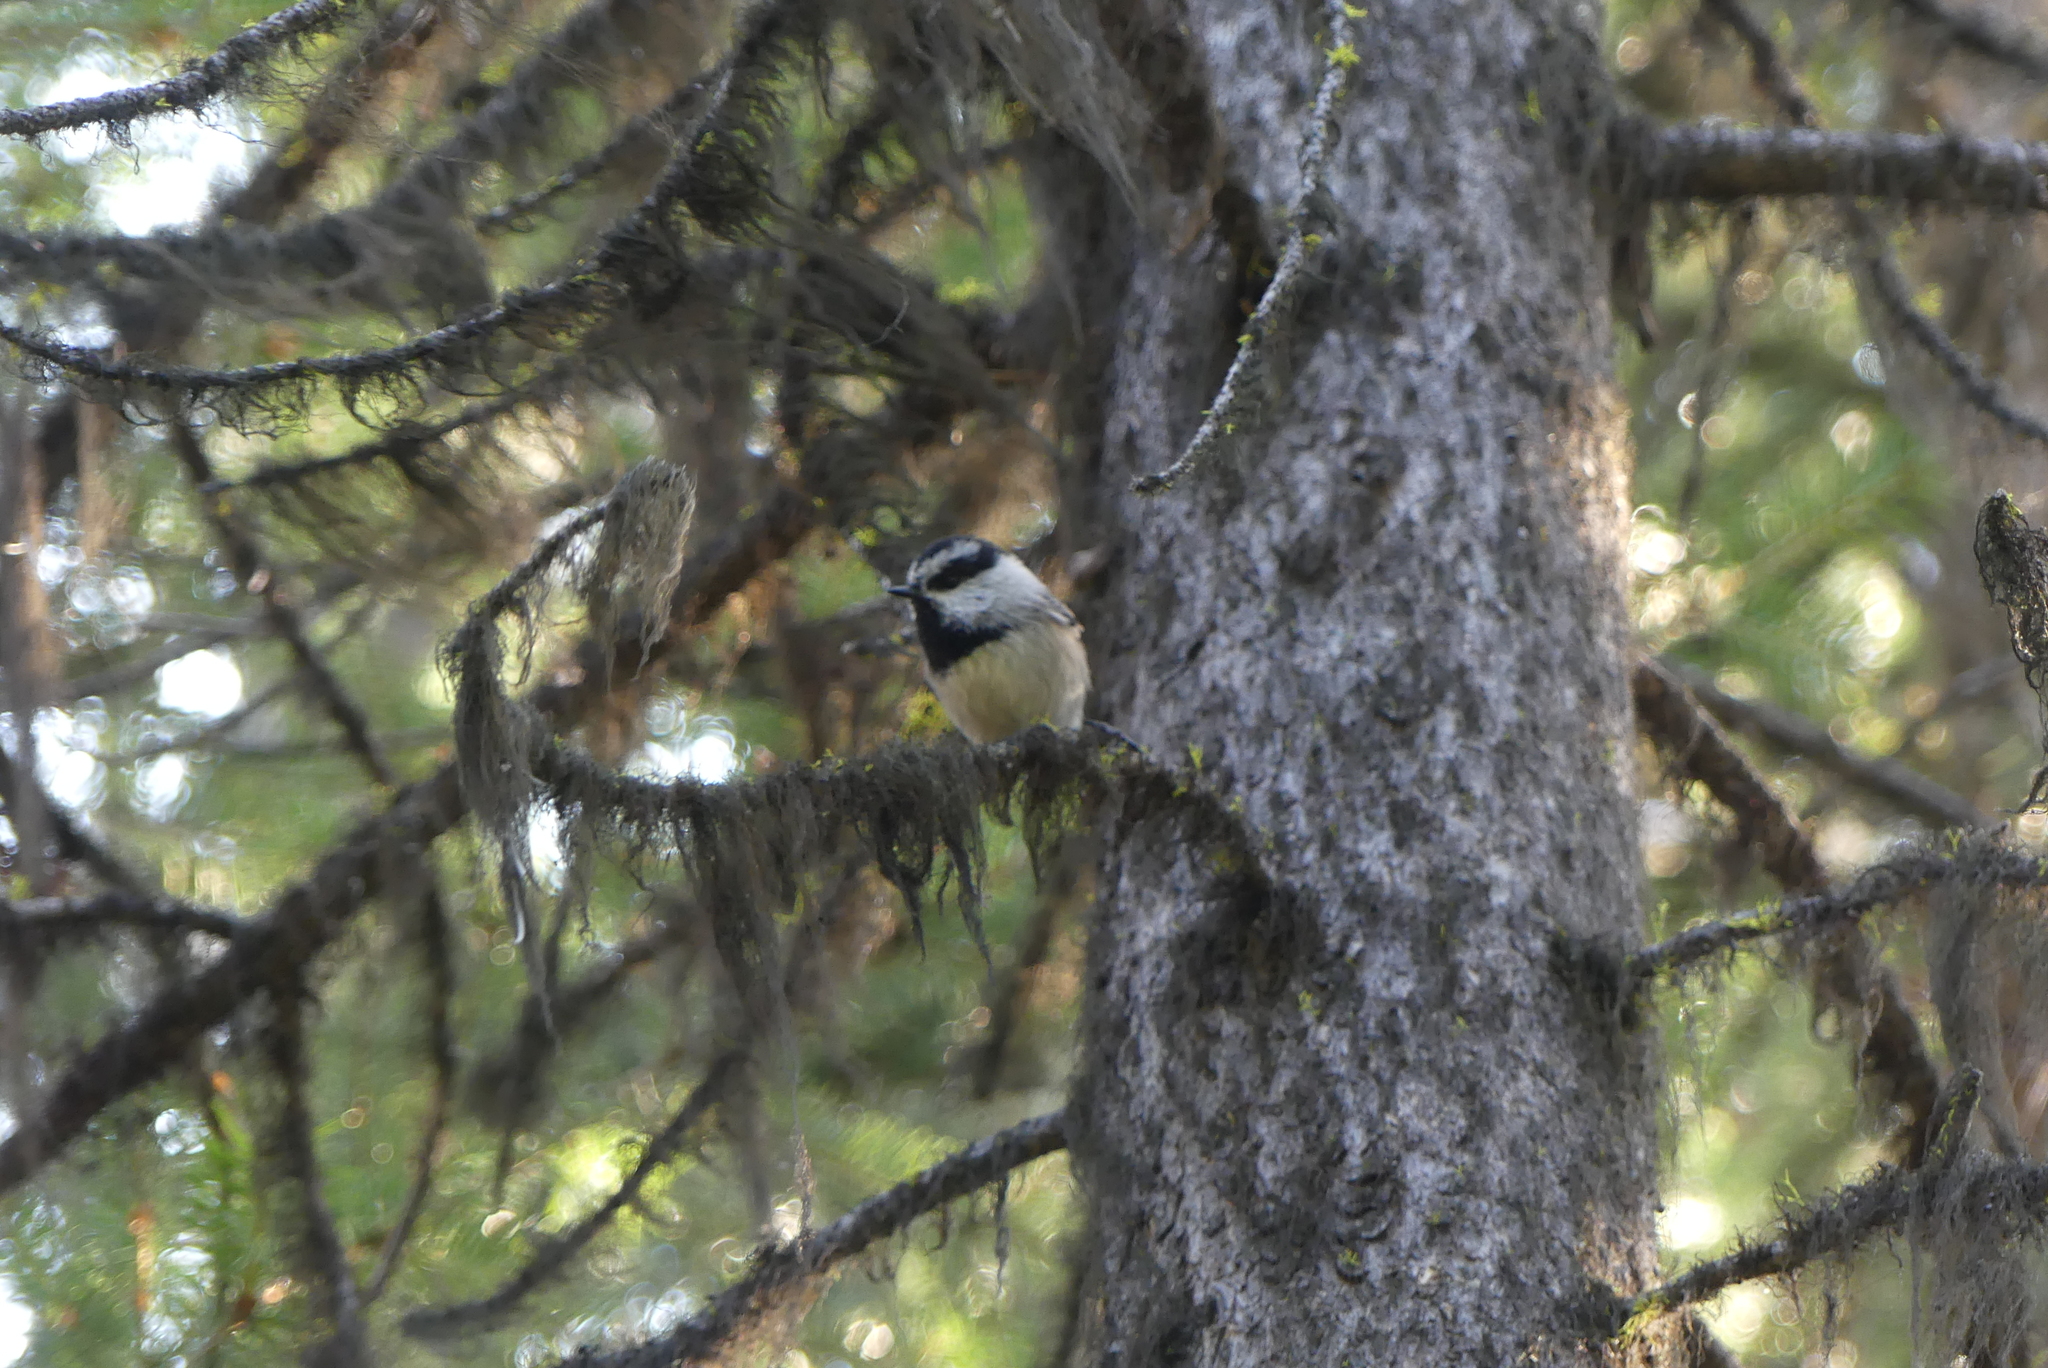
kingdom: Animalia
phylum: Chordata
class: Aves
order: Passeriformes
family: Paridae
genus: Poecile
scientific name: Poecile gambeli
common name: Mountain chickadee
